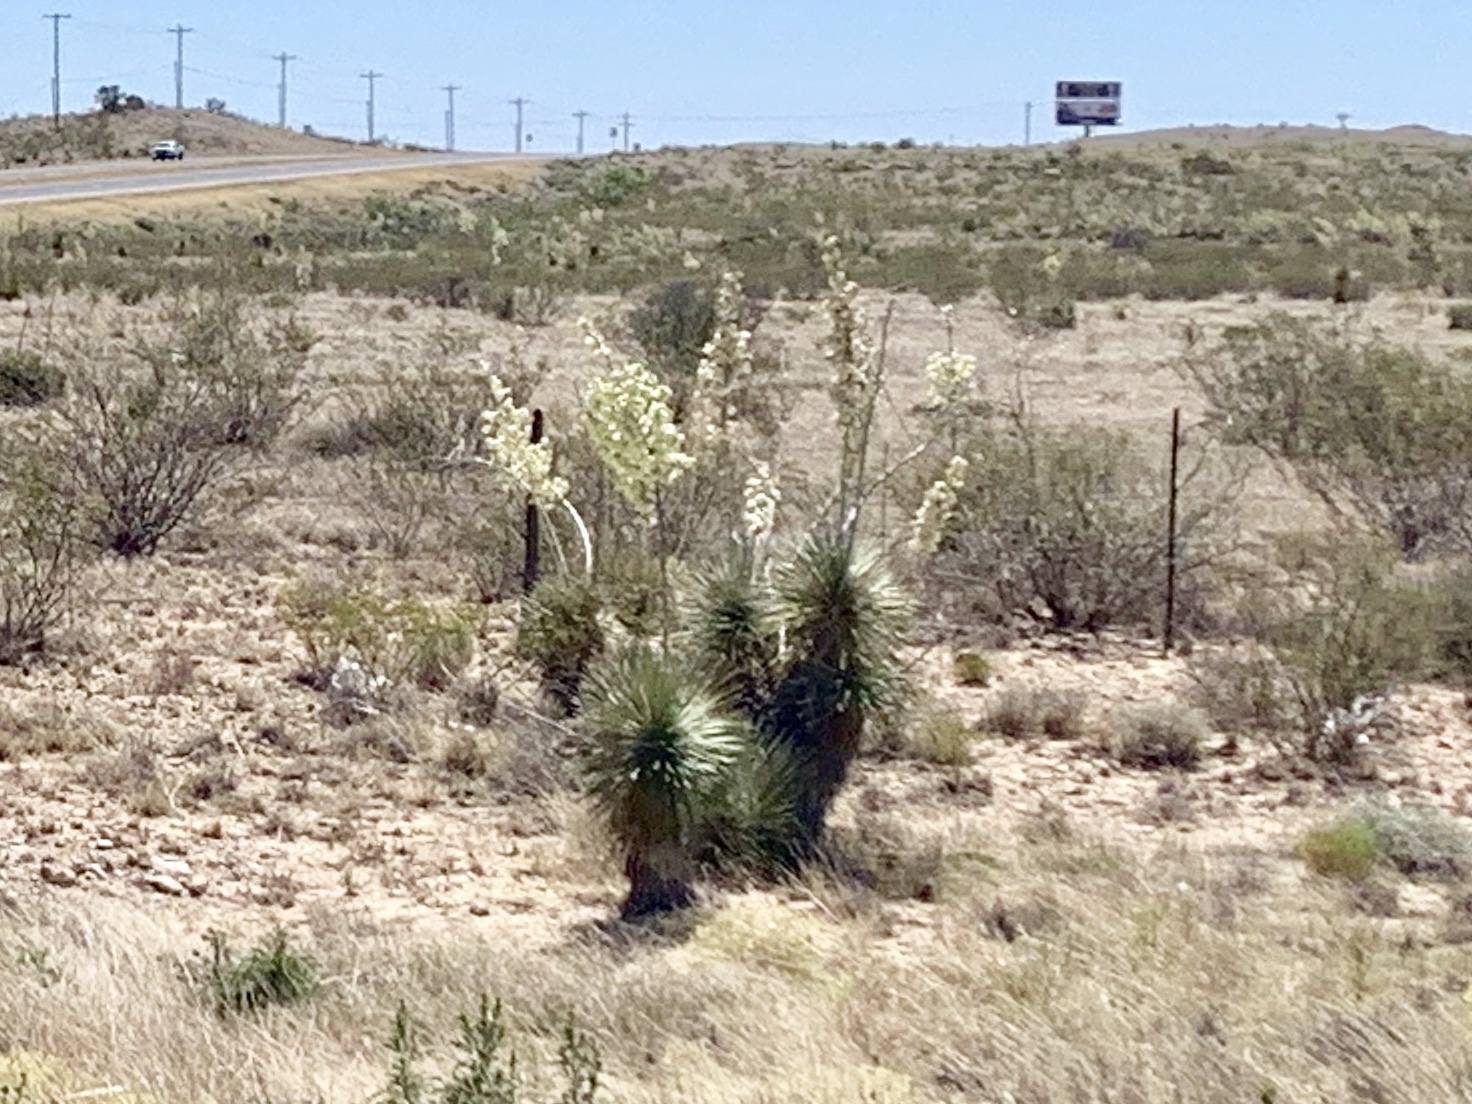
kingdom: Plantae
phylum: Tracheophyta
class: Liliopsida
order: Asparagales
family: Asparagaceae
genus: Yucca
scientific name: Yucca elata
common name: Palmella
